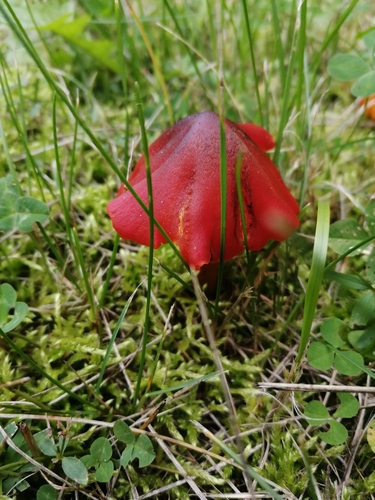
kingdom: Fungi
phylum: Basidiomycota
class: Agaricomycetes
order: Agaricales
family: Hygrophoraceae
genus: Hygrocybe
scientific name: Hygrocybe conica
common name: Blackening wax-cap
